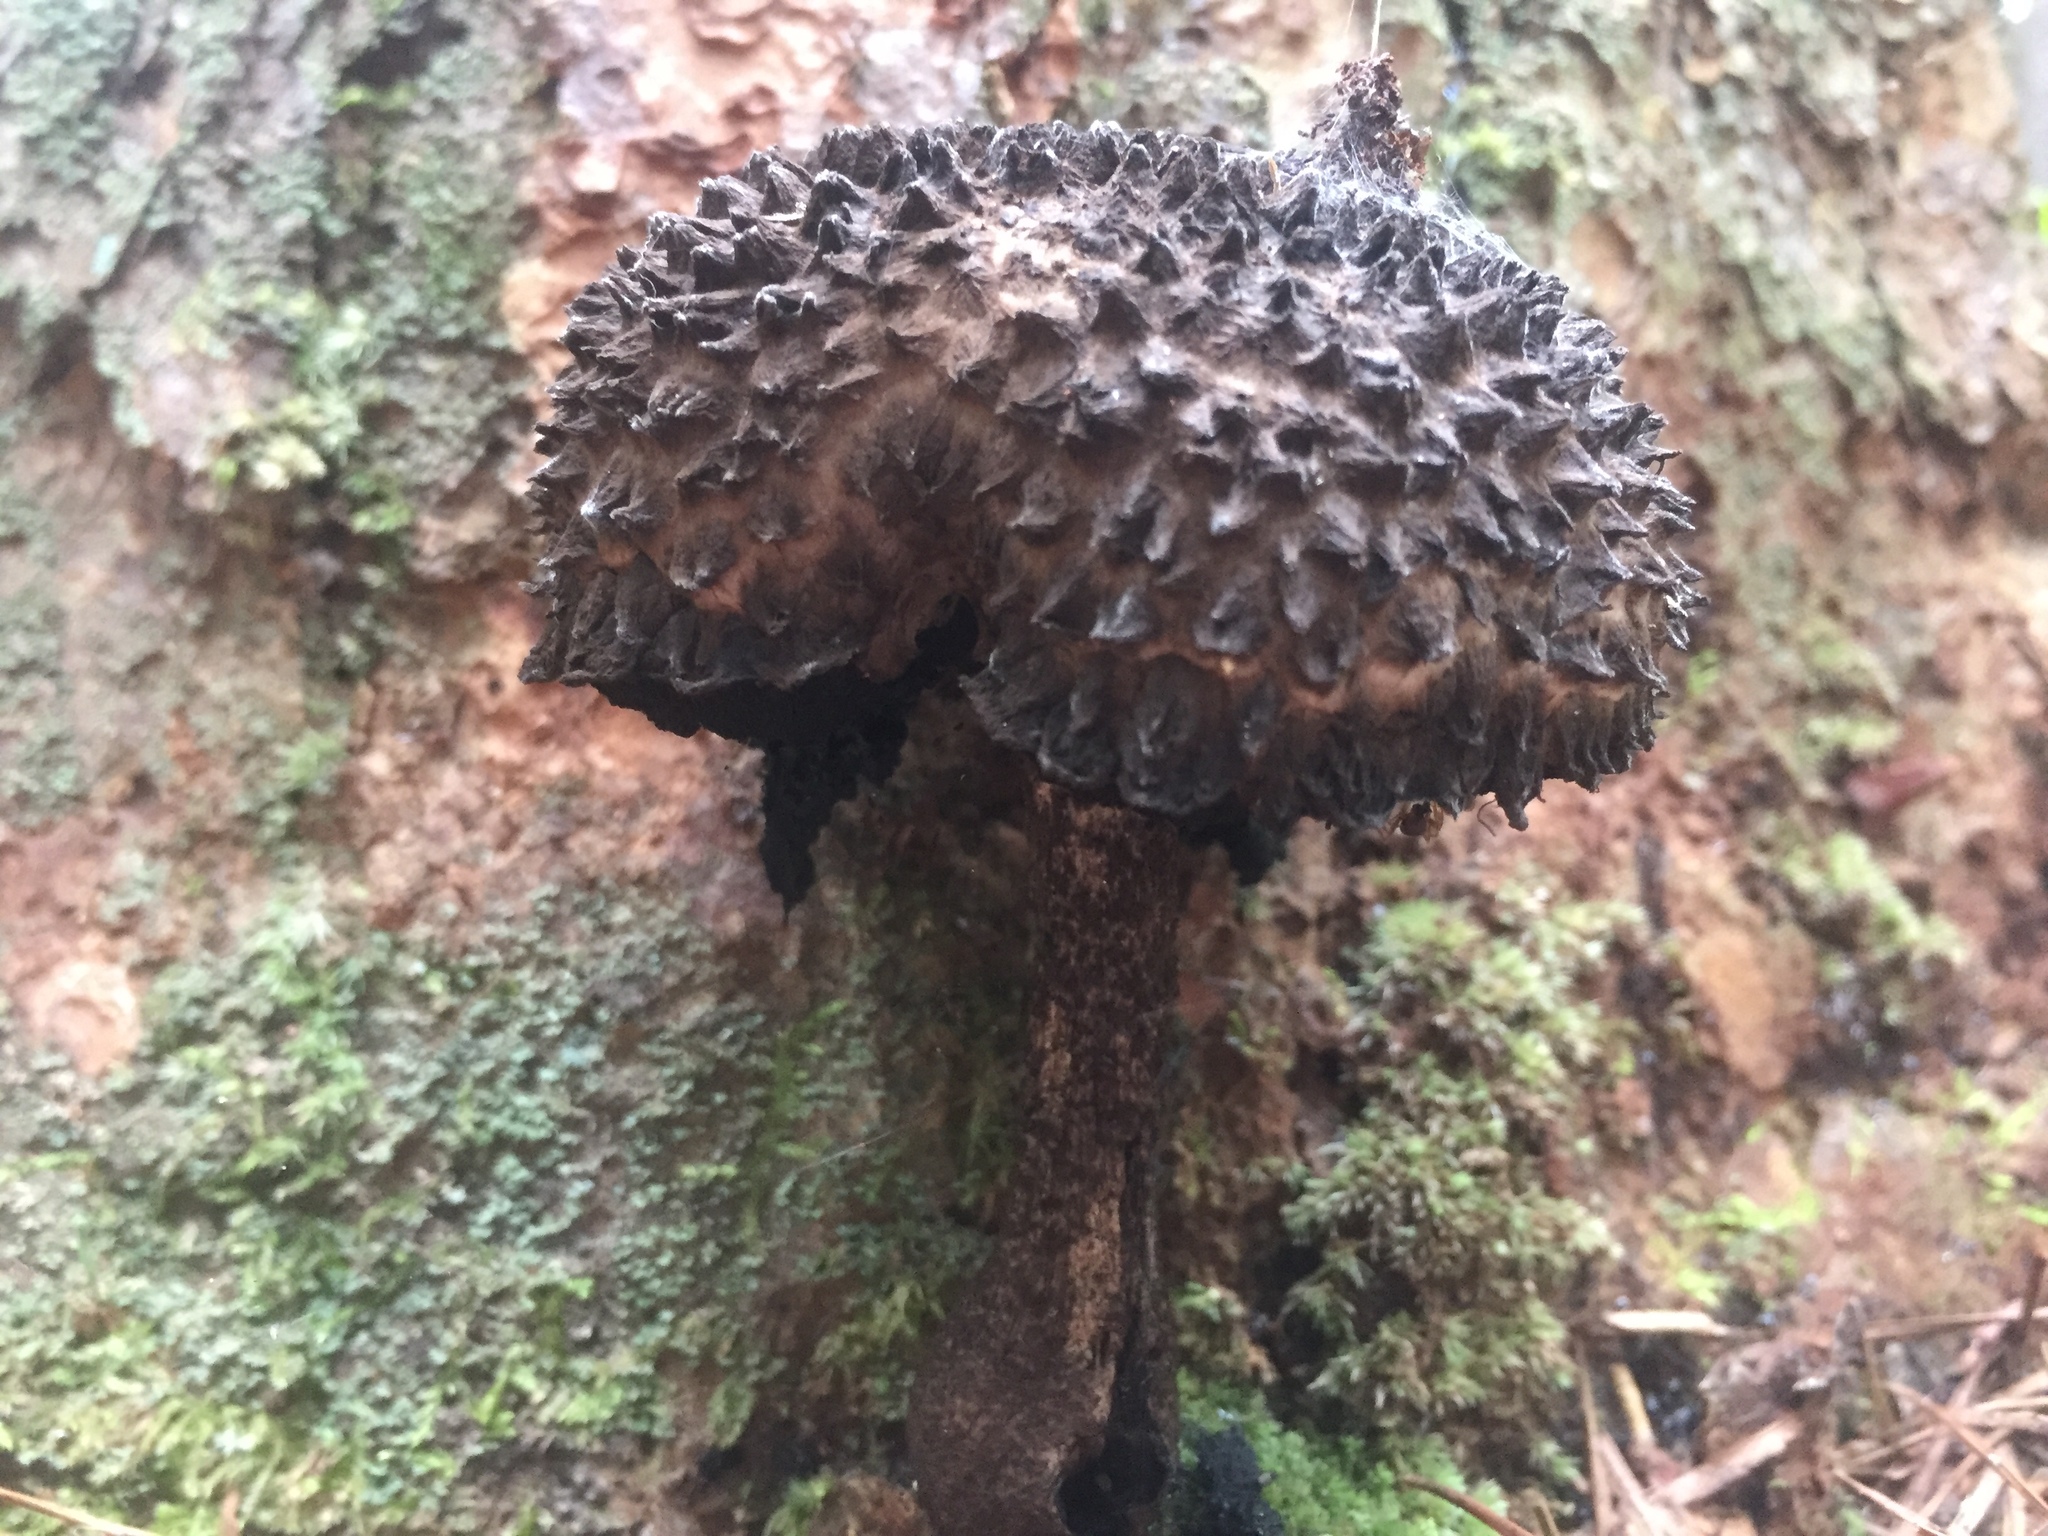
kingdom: Fungi
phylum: Basidiomycota
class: Agaricomycetes
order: Boletales
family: Boletaceae
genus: Strobilomyces
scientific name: Strobilomyces strobilaceus
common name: Old man of the woods
